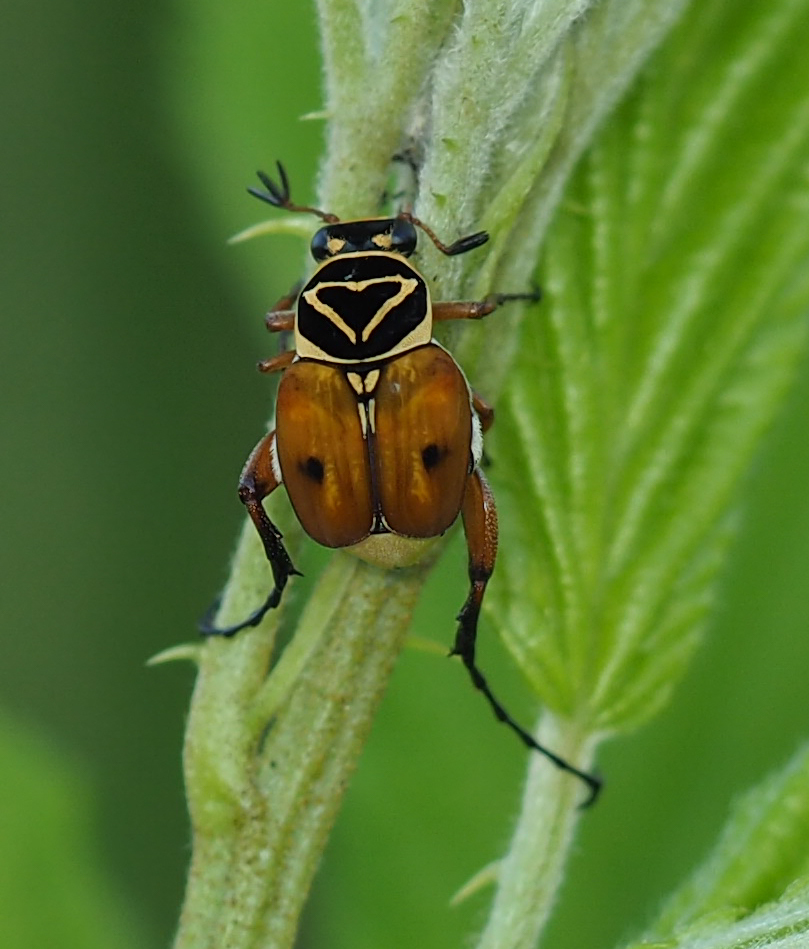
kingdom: Animalia
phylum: Arthropoda
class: Insecta
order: Coleoptera
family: Scarabaeidae
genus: Trigonopeltastes
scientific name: Trigonopeltastes delta
